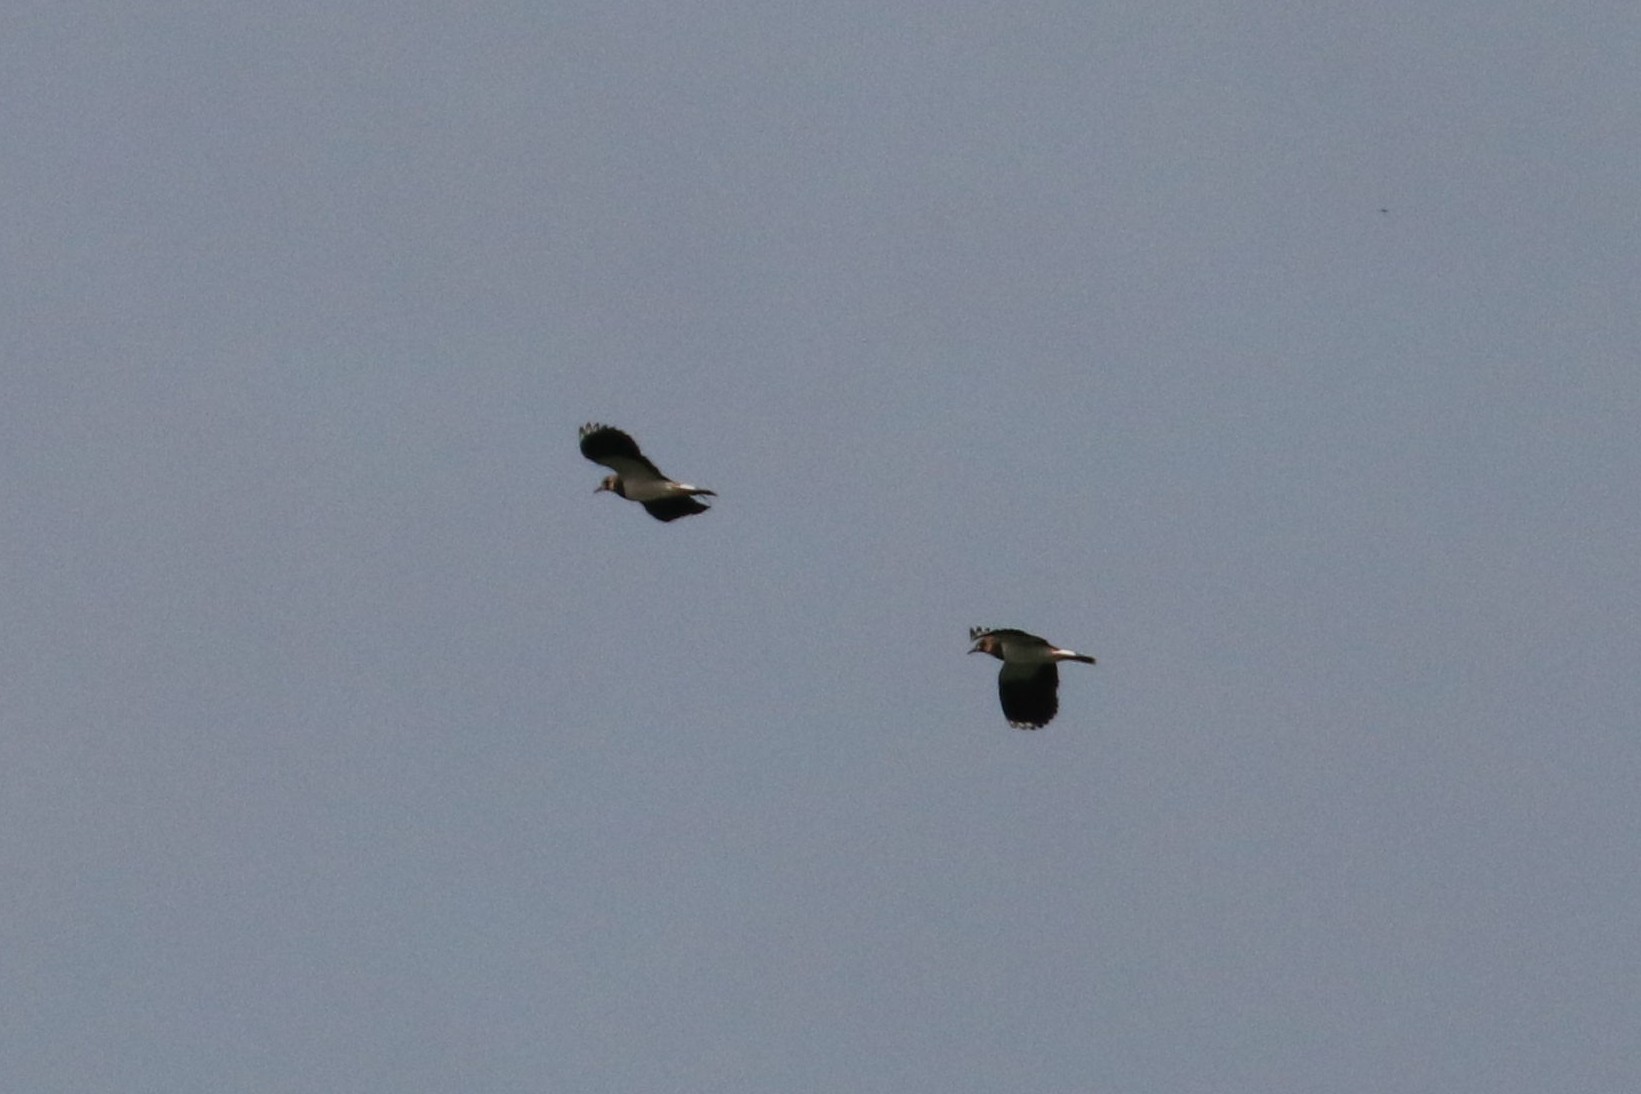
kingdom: Animalia
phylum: Chordata
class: Aves
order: Charadriiformes
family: Charadriidae
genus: Vanellus
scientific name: Vanellus vanellus
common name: Northern lapwing
